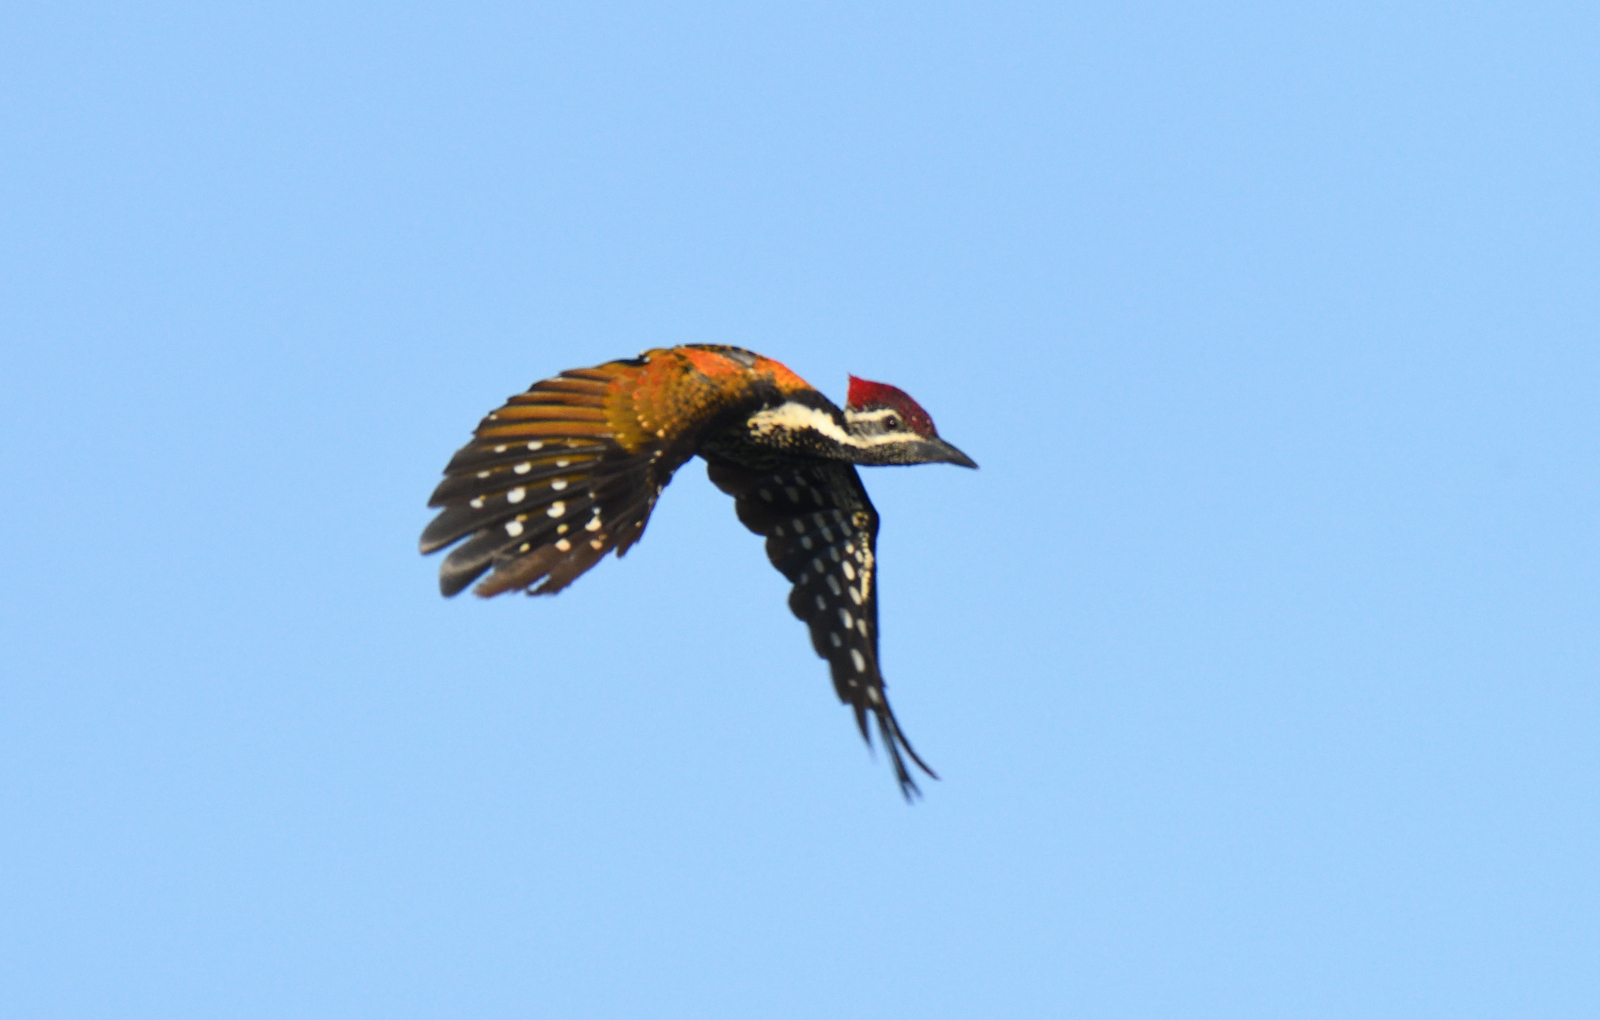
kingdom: Animalia
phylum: Chordata
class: Aves
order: Piciformes
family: Picidae
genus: Dinopium
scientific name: Dinopium benghalense
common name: Black-rumped flameback
